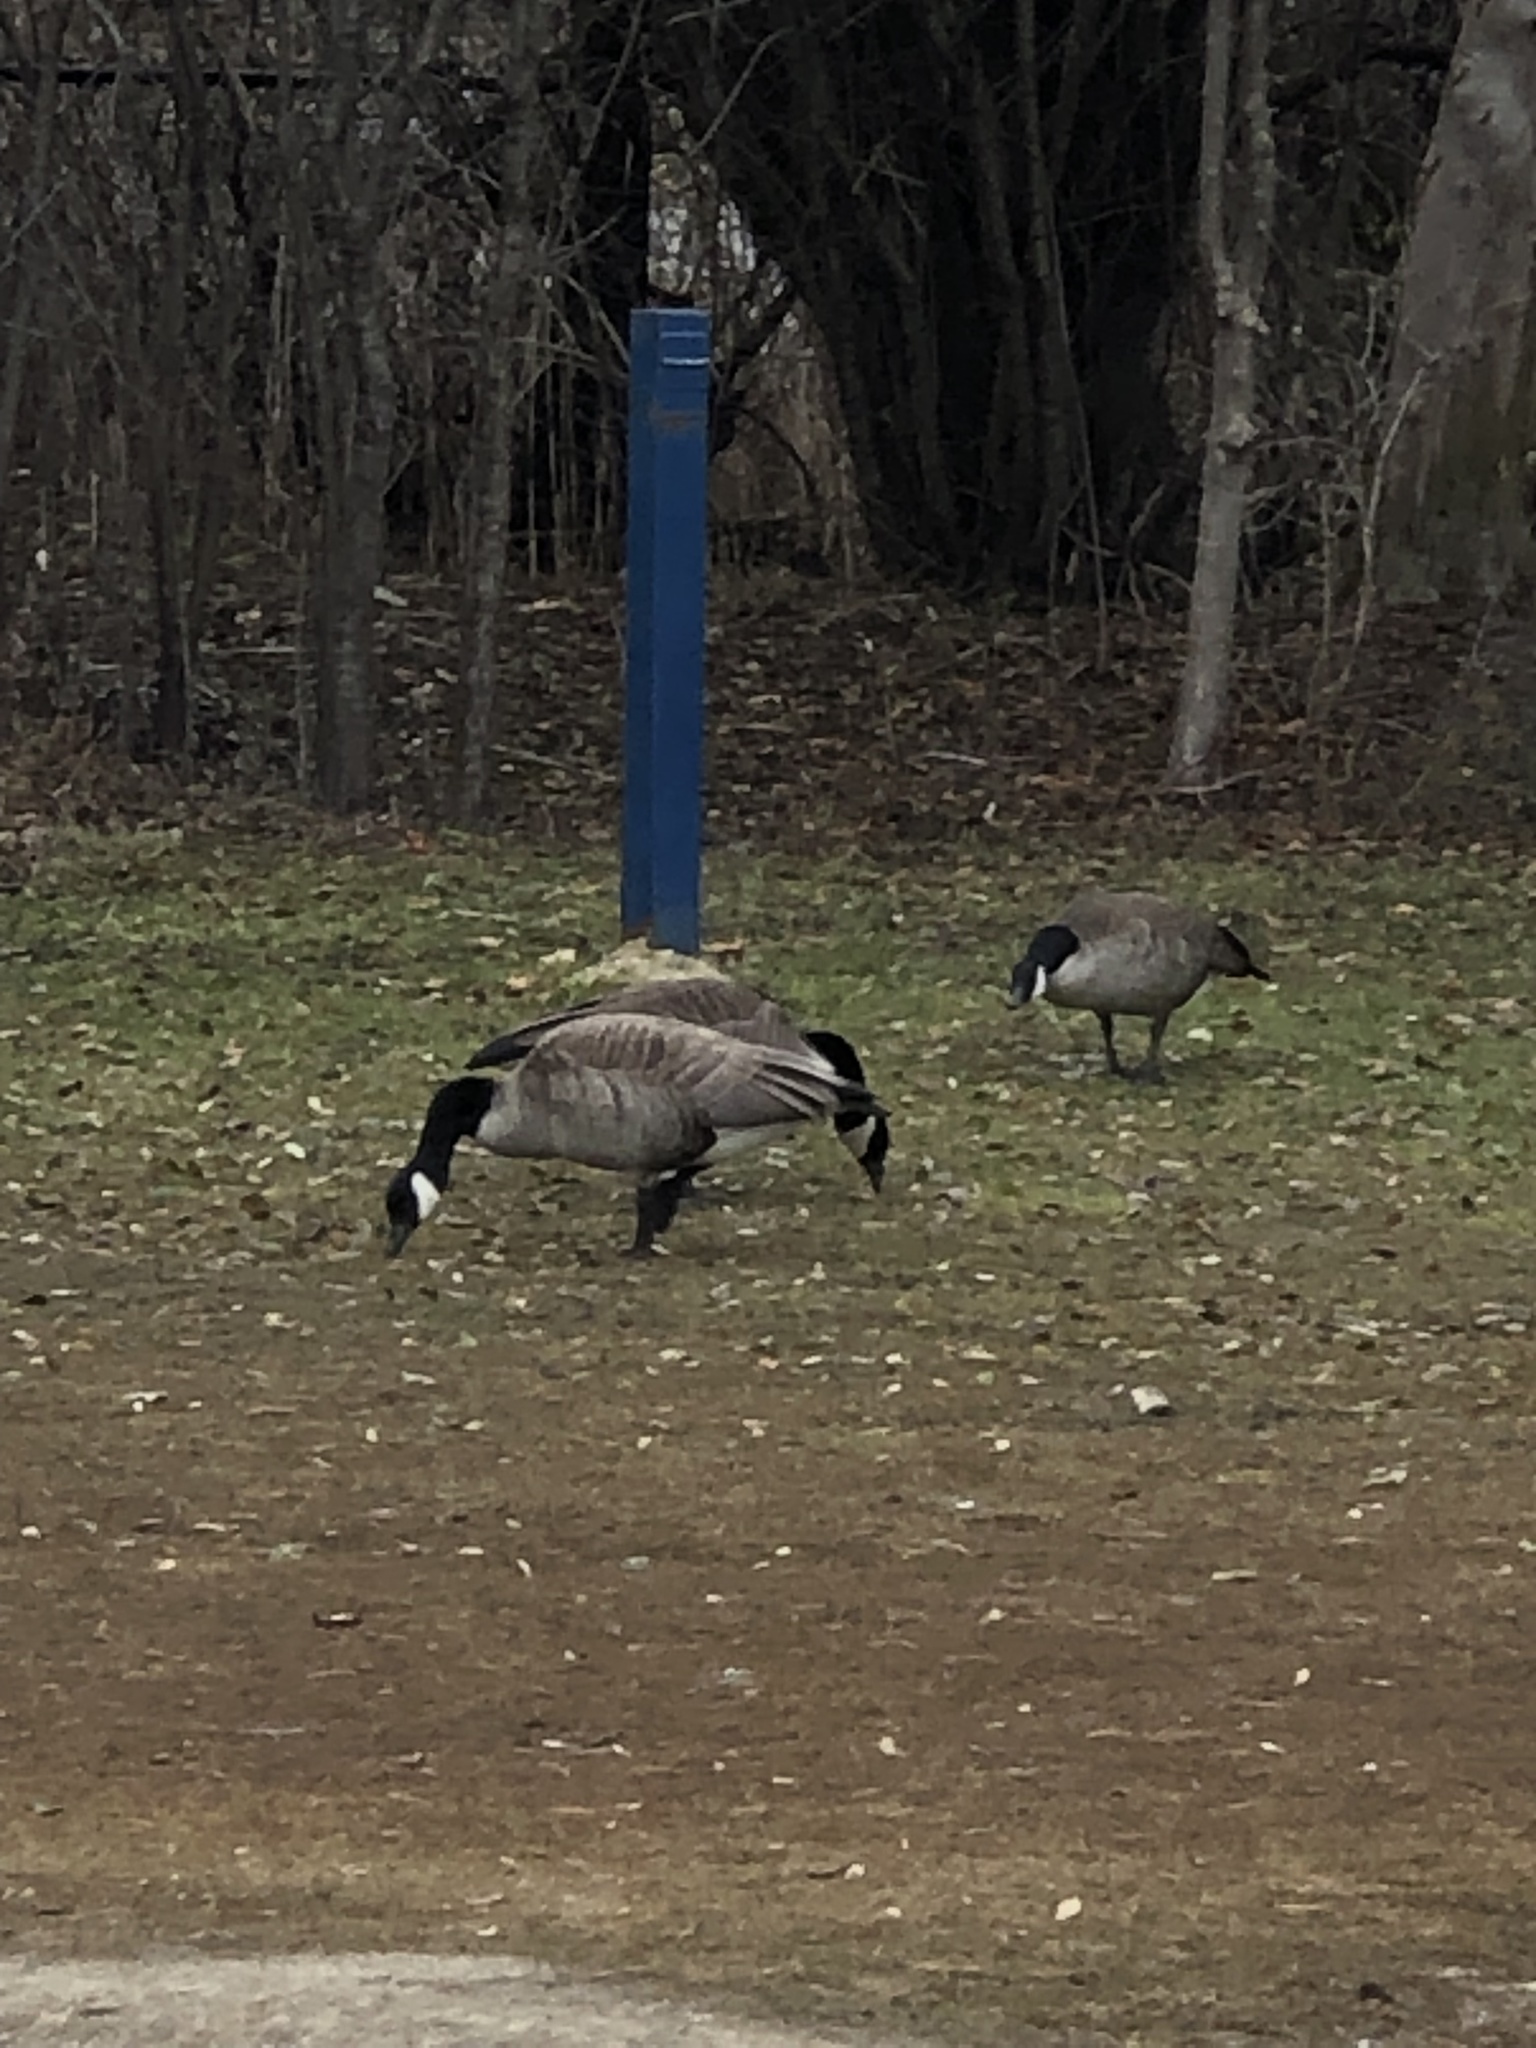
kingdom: Animalia
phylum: Chordata
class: Aves
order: Anseriformes
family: Anatidae
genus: Branta
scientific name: Branta canadensis
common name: Canada goose
